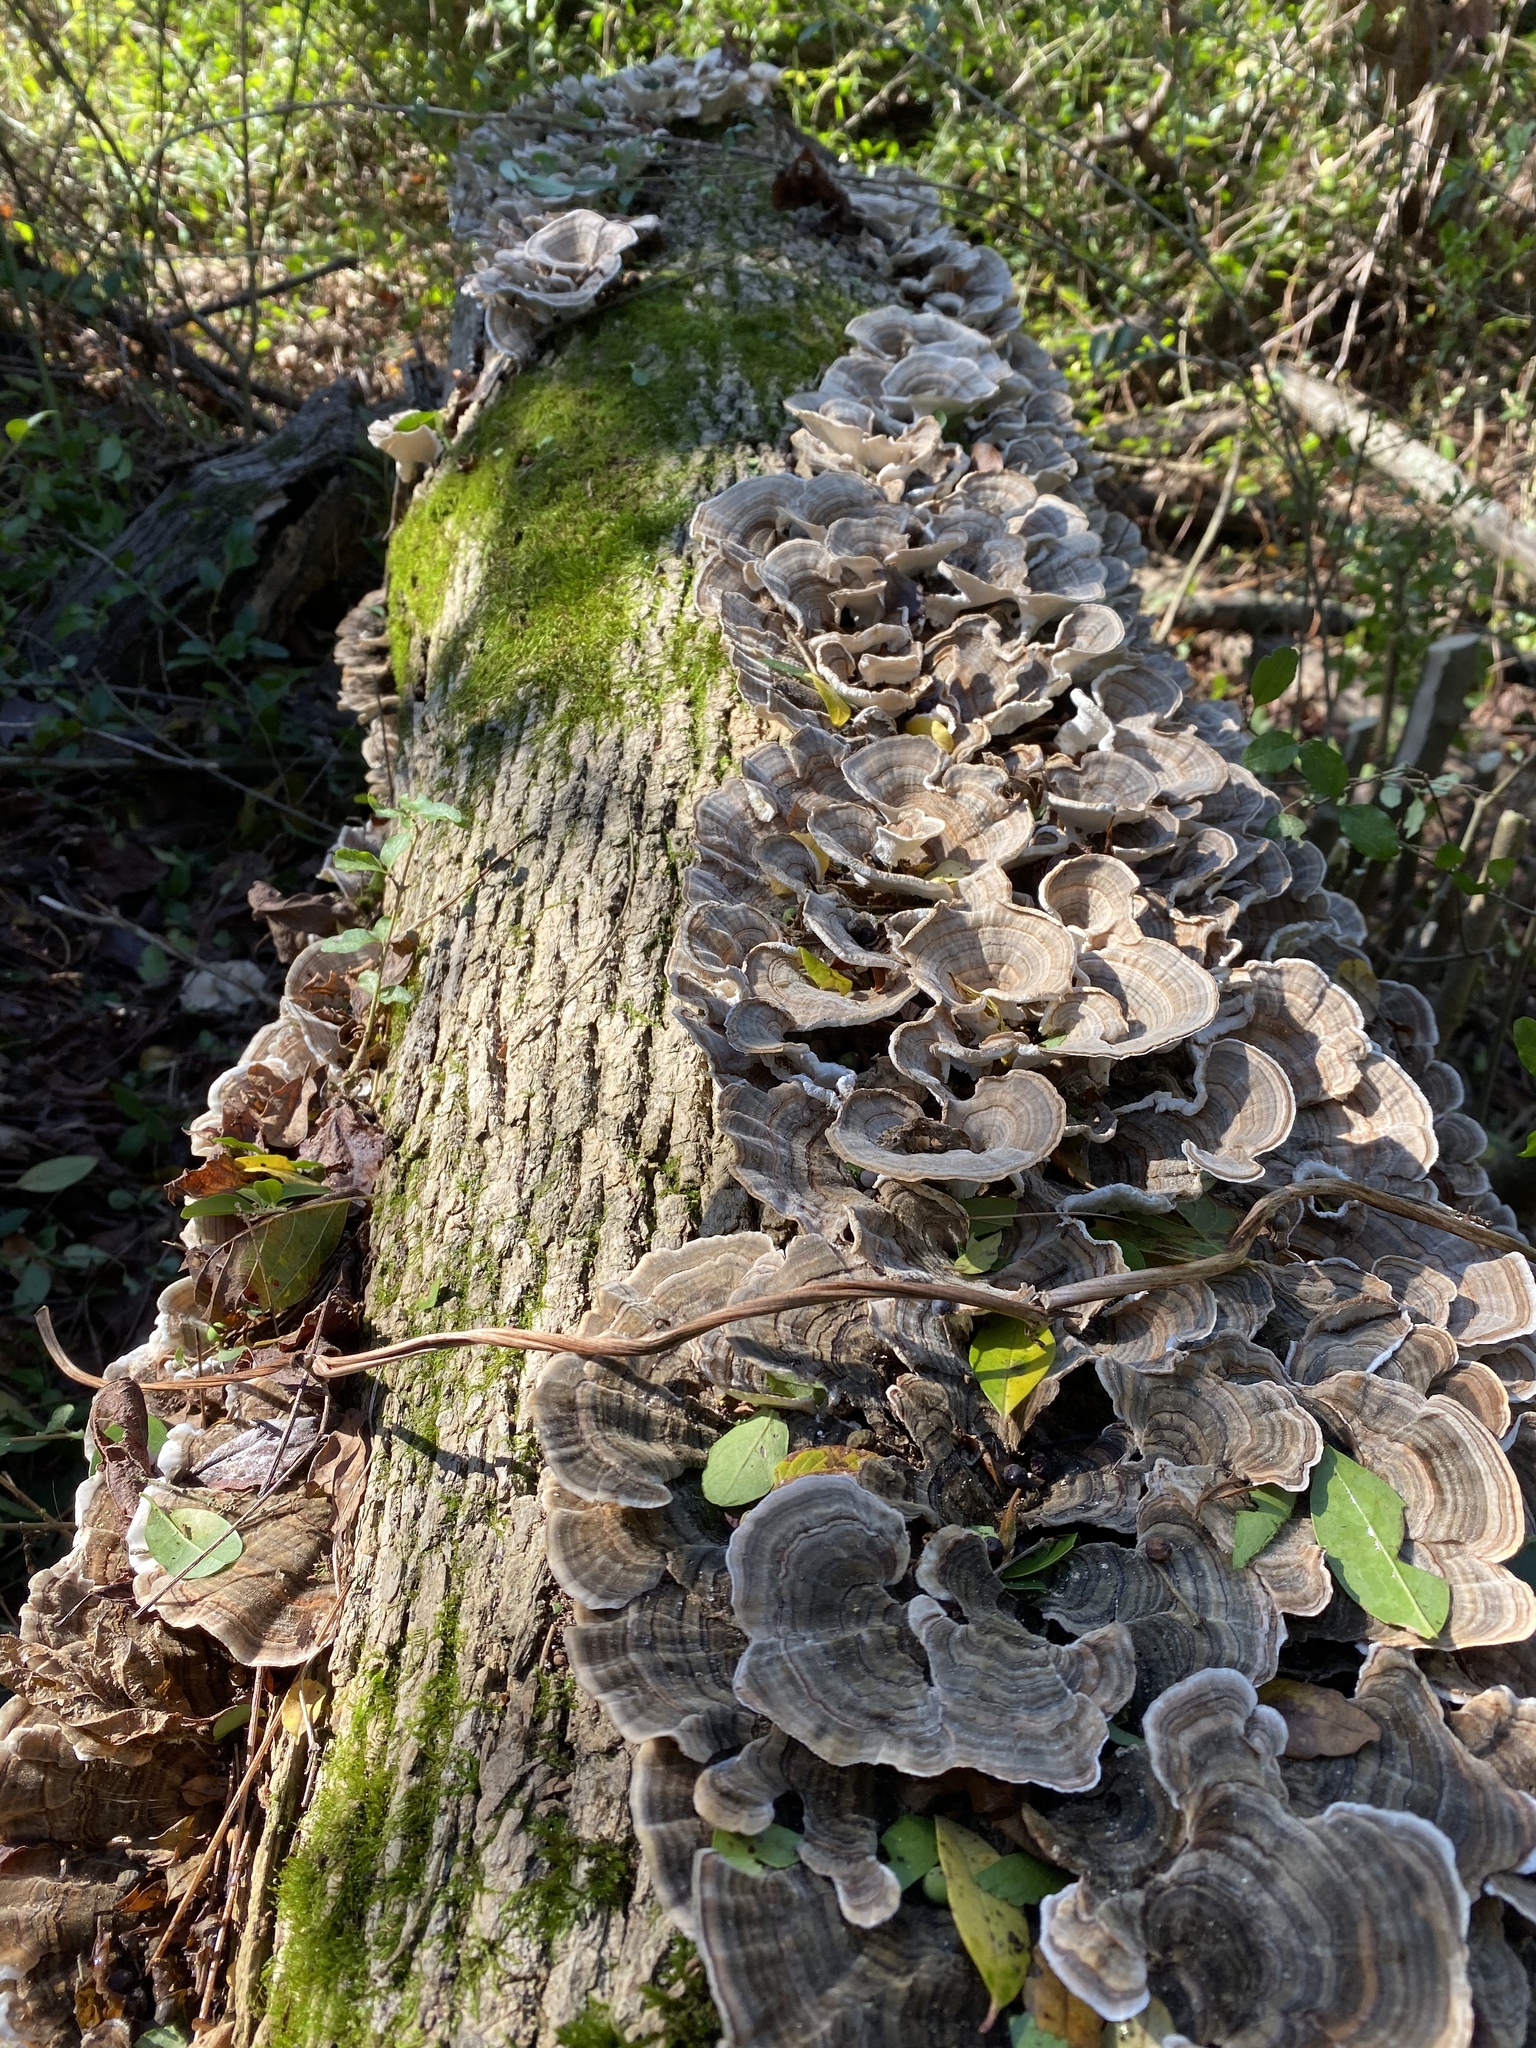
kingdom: Fungi
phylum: Basidiomycota
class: Agaricomycetes
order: Polyporales
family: Polyporaceae
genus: Trametes
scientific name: Trametes versicolor
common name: Turkeytail
